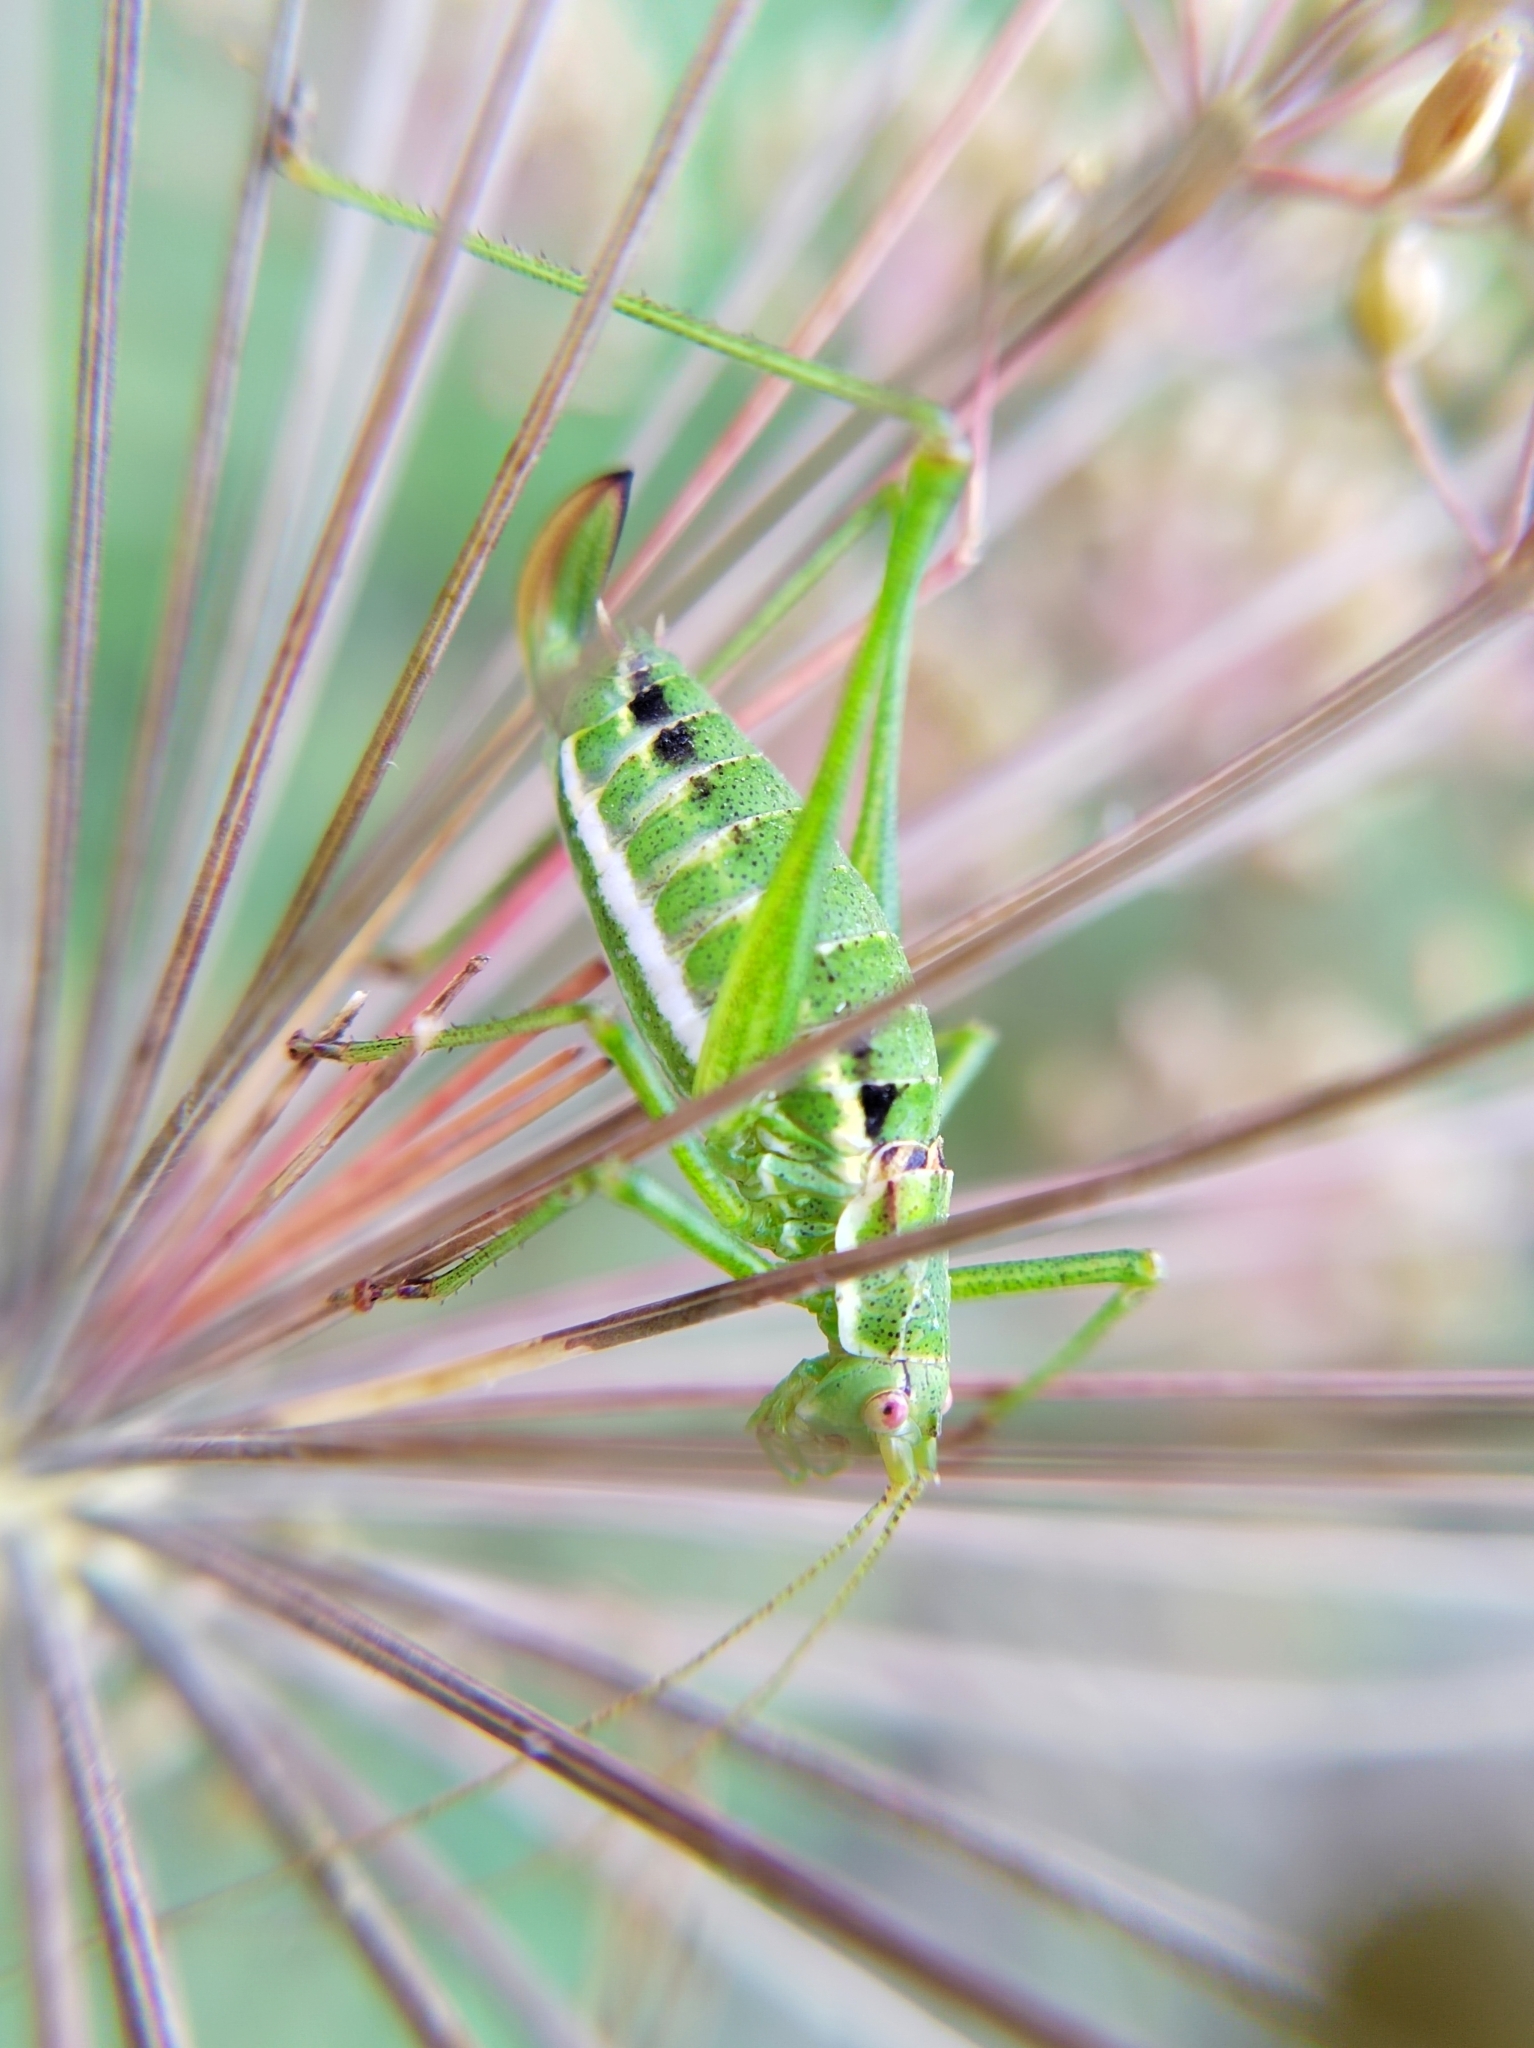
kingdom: Animalia
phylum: Arthropoda
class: Insecta
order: Orthoptera
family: Tettigoniidae
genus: Leptophyes
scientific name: Leptophyes albovittata
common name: Striped bush-cricket
